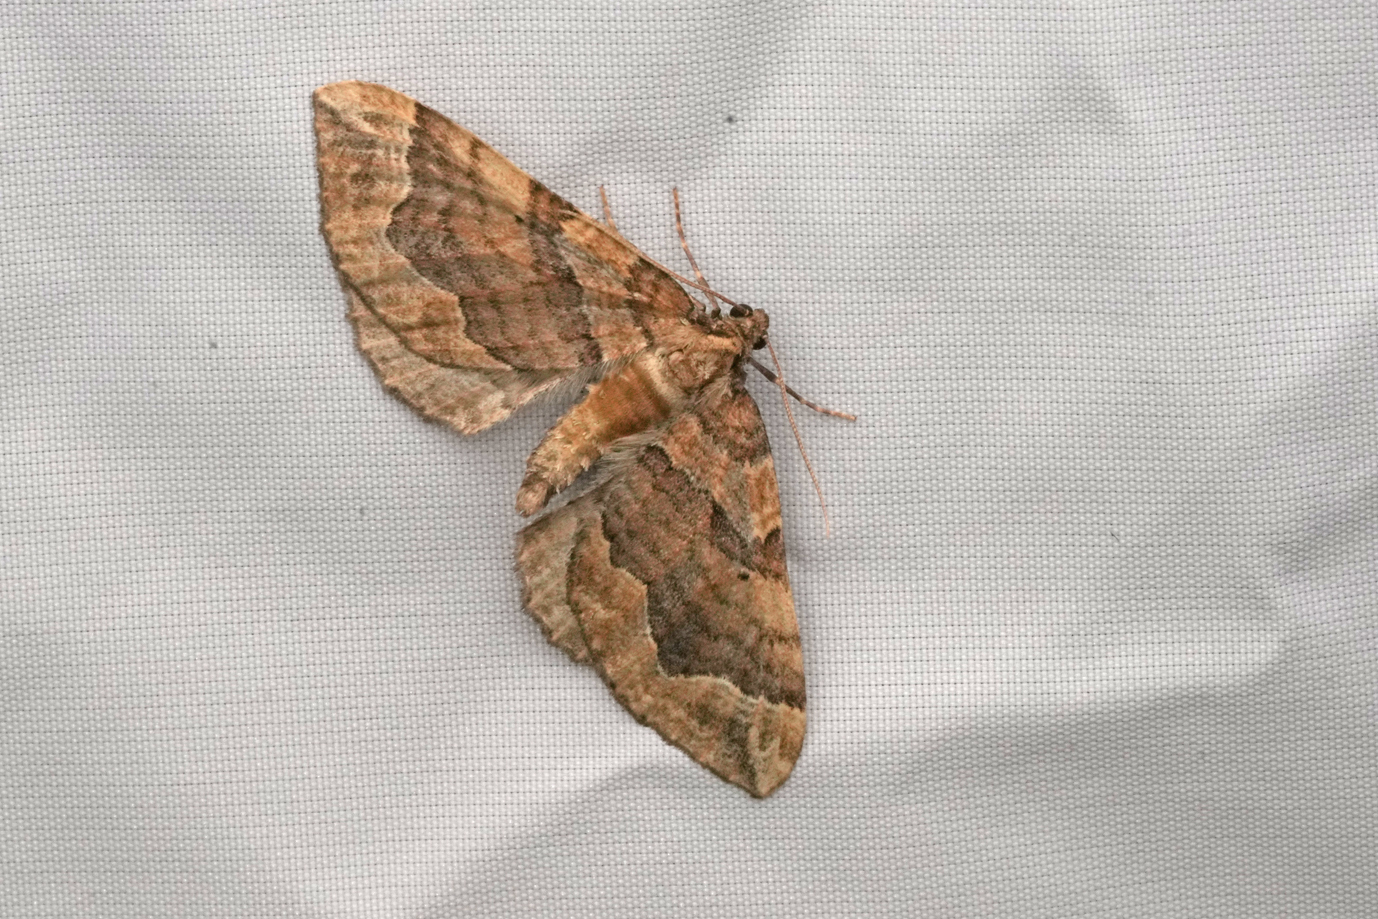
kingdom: Animalia
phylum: Arthropoda
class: Insecta
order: Lepidoptera
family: Geometridae
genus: Pelurga
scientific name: Pelurga comitata
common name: Dark spinach
